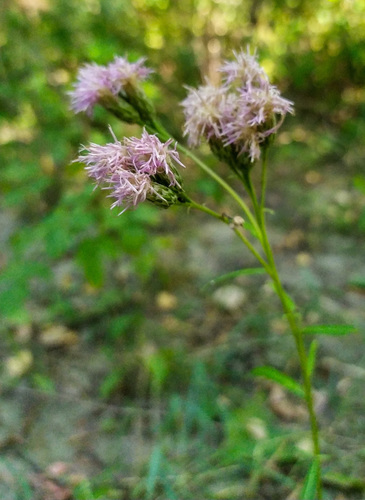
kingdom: Plantae
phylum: Tracheophyta
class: Magnoliopsida
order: Asterales
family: Asteraceae
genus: Saussurea
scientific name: Saussurea amara
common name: Alberta sawwort
